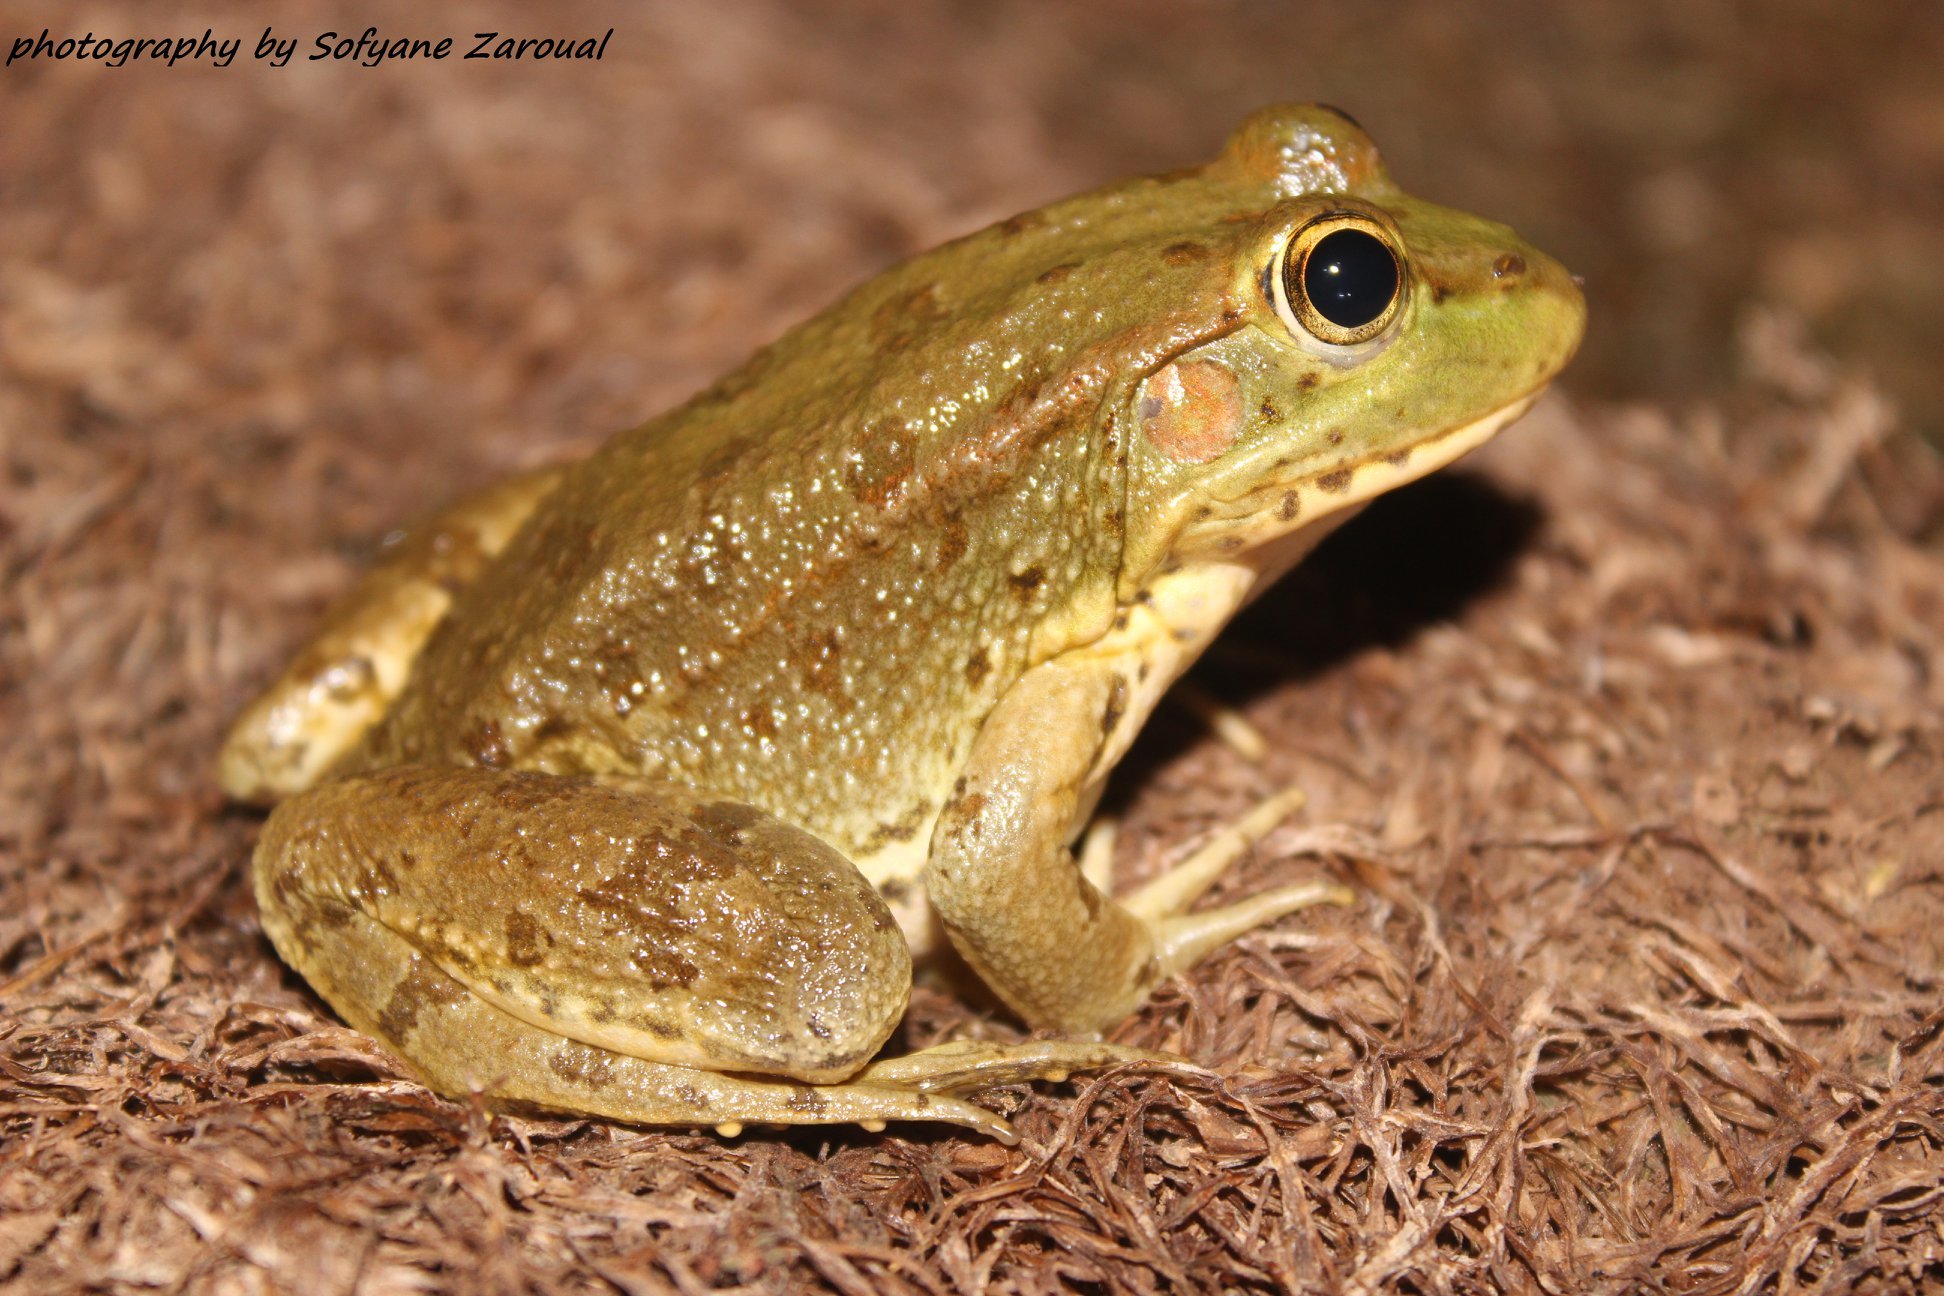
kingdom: Animalia
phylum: Chordata
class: Amphibia
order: Anura
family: Ranidae
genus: Pelophylax
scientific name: Pelophylax saharicus
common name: Sahara frog
